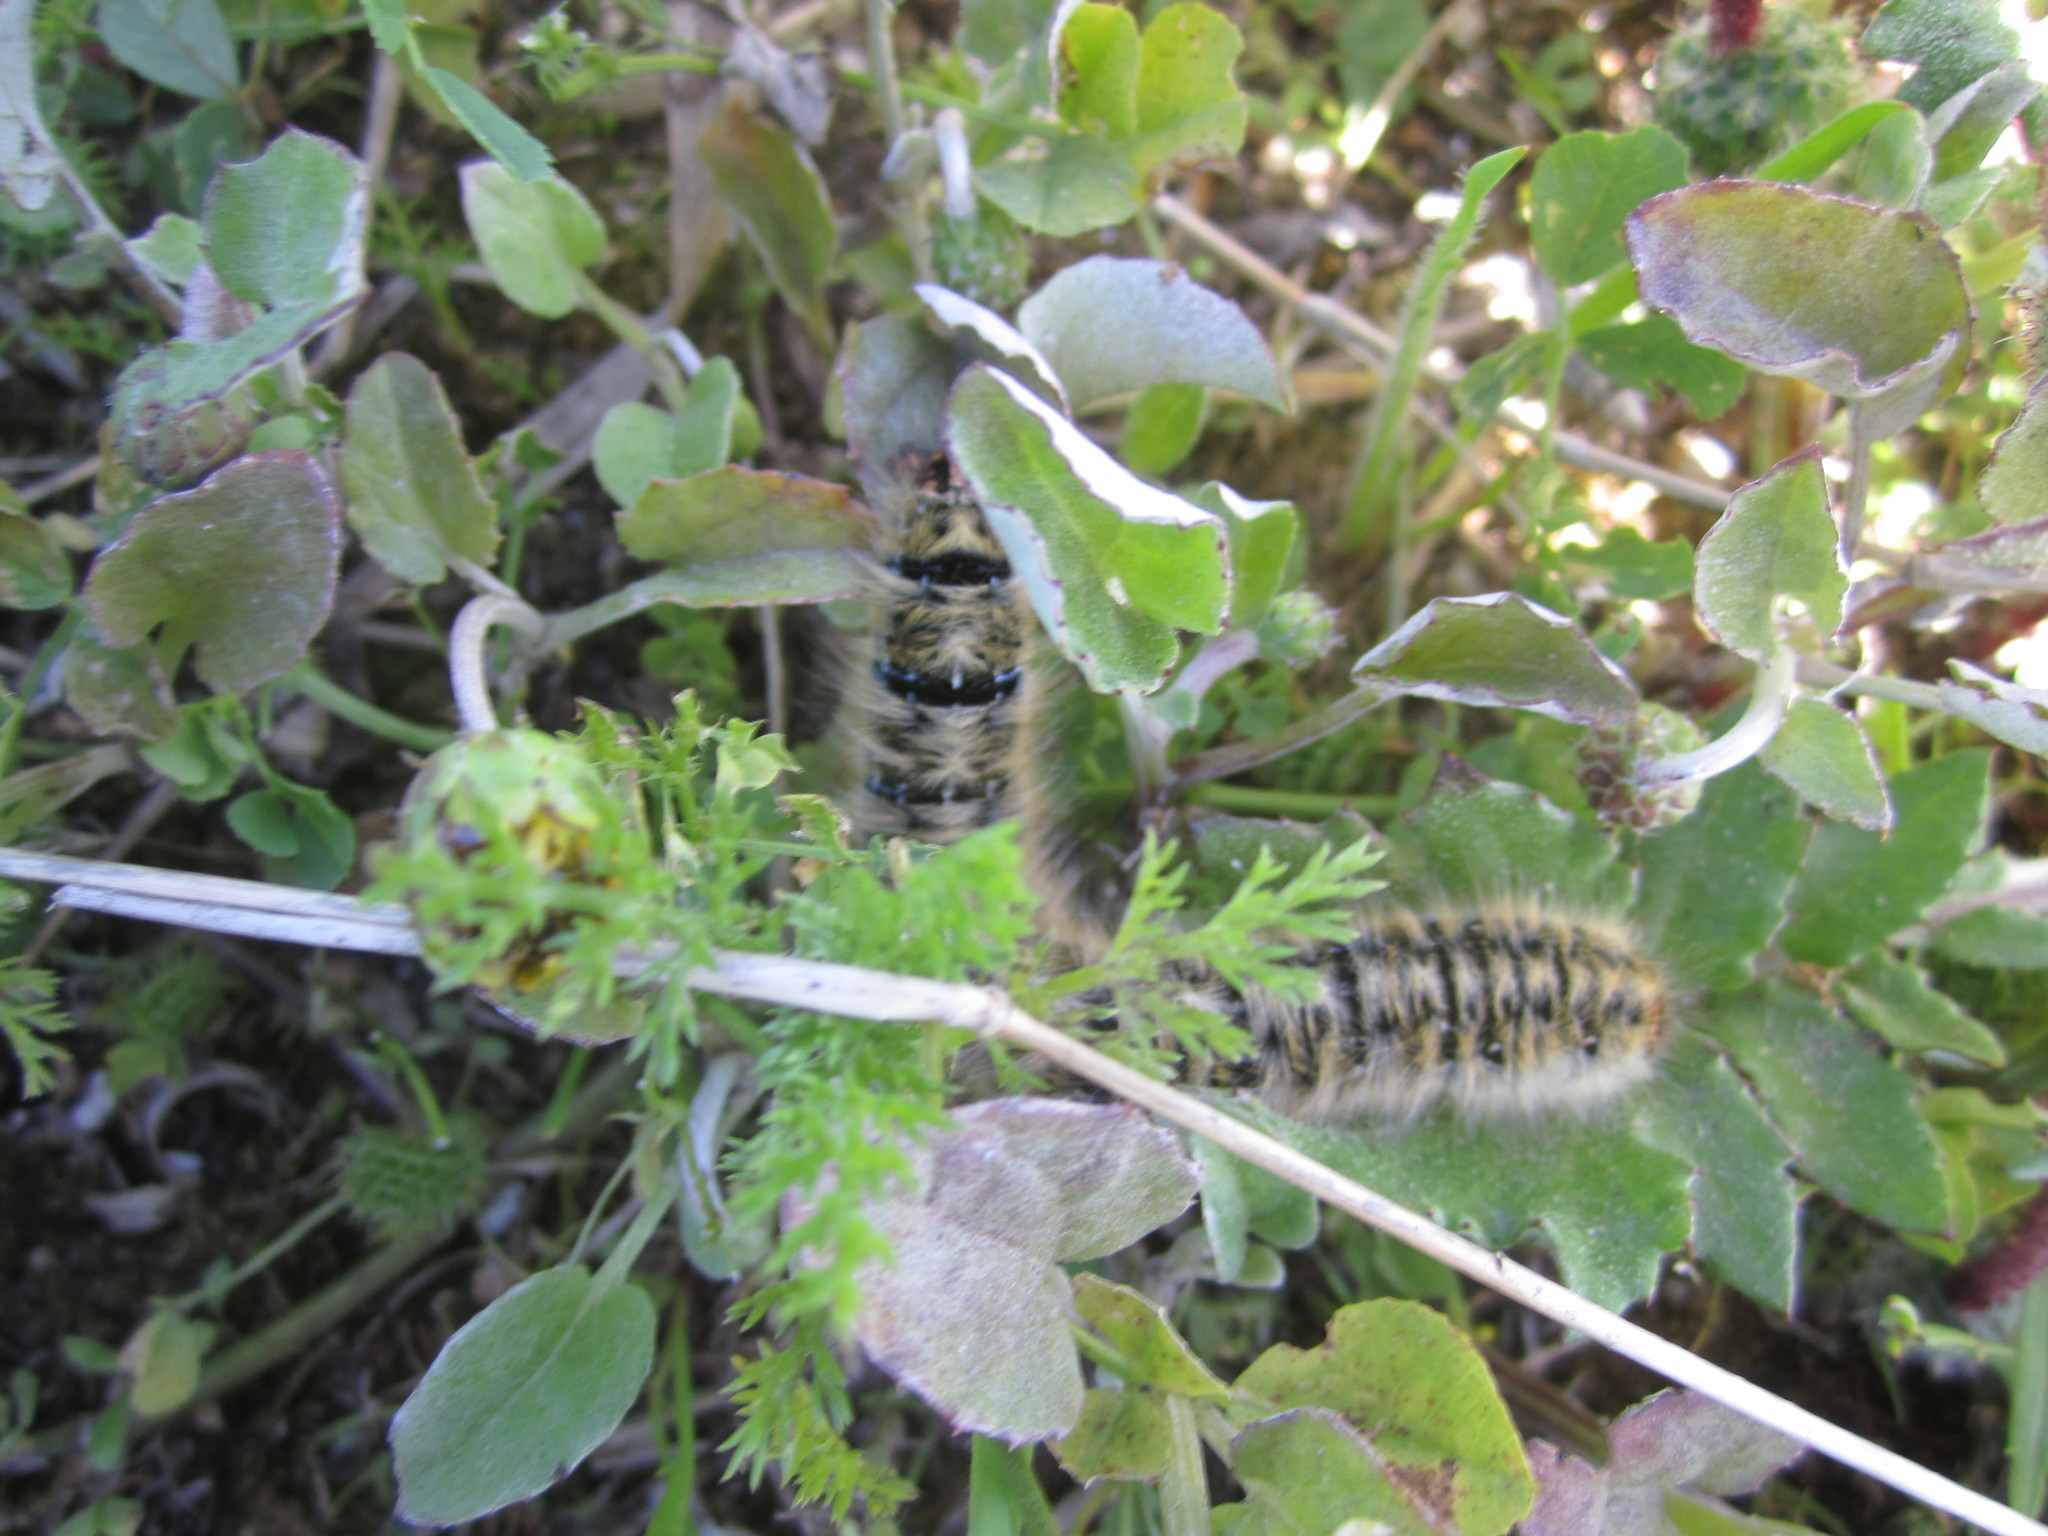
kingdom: Animalia
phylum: Arthropoda
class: Insecta
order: Lepidoptera
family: Lasiocampidae
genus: Lasiocampa
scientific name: Lasiocampa trifolii
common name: Grass eggar
